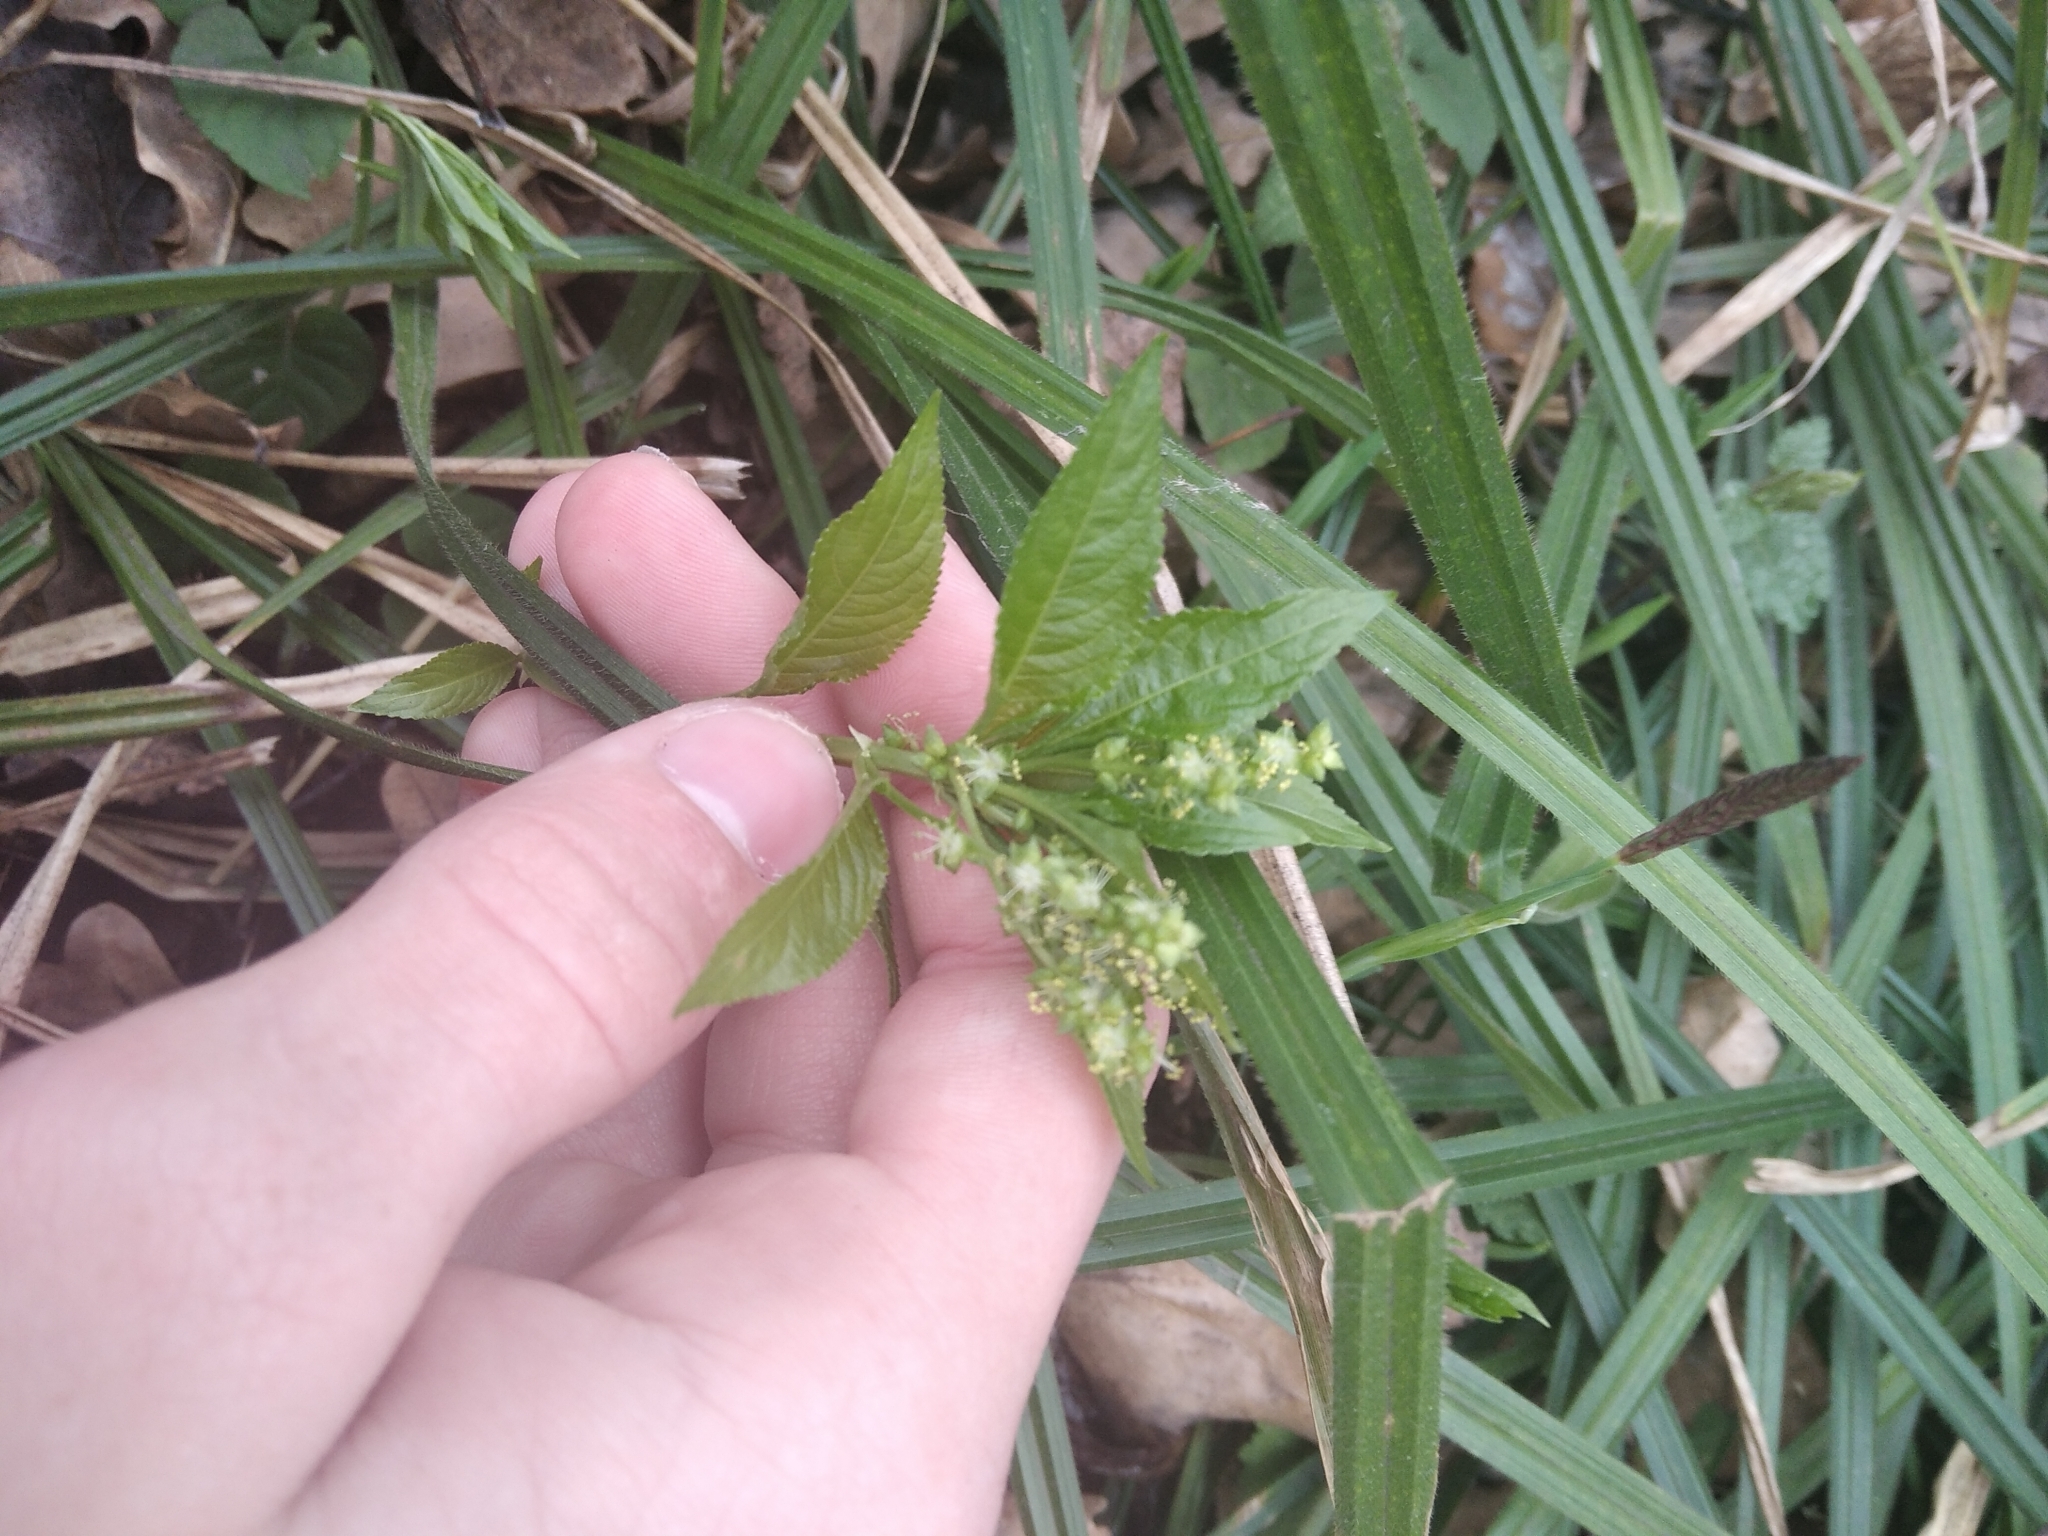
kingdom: Plantae
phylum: Tracheophyta
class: Magnoliopsida
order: Malpighiales
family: Euphorbiaceae
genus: Mercurialis
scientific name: Mercurialis perennis
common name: Dog mercury
